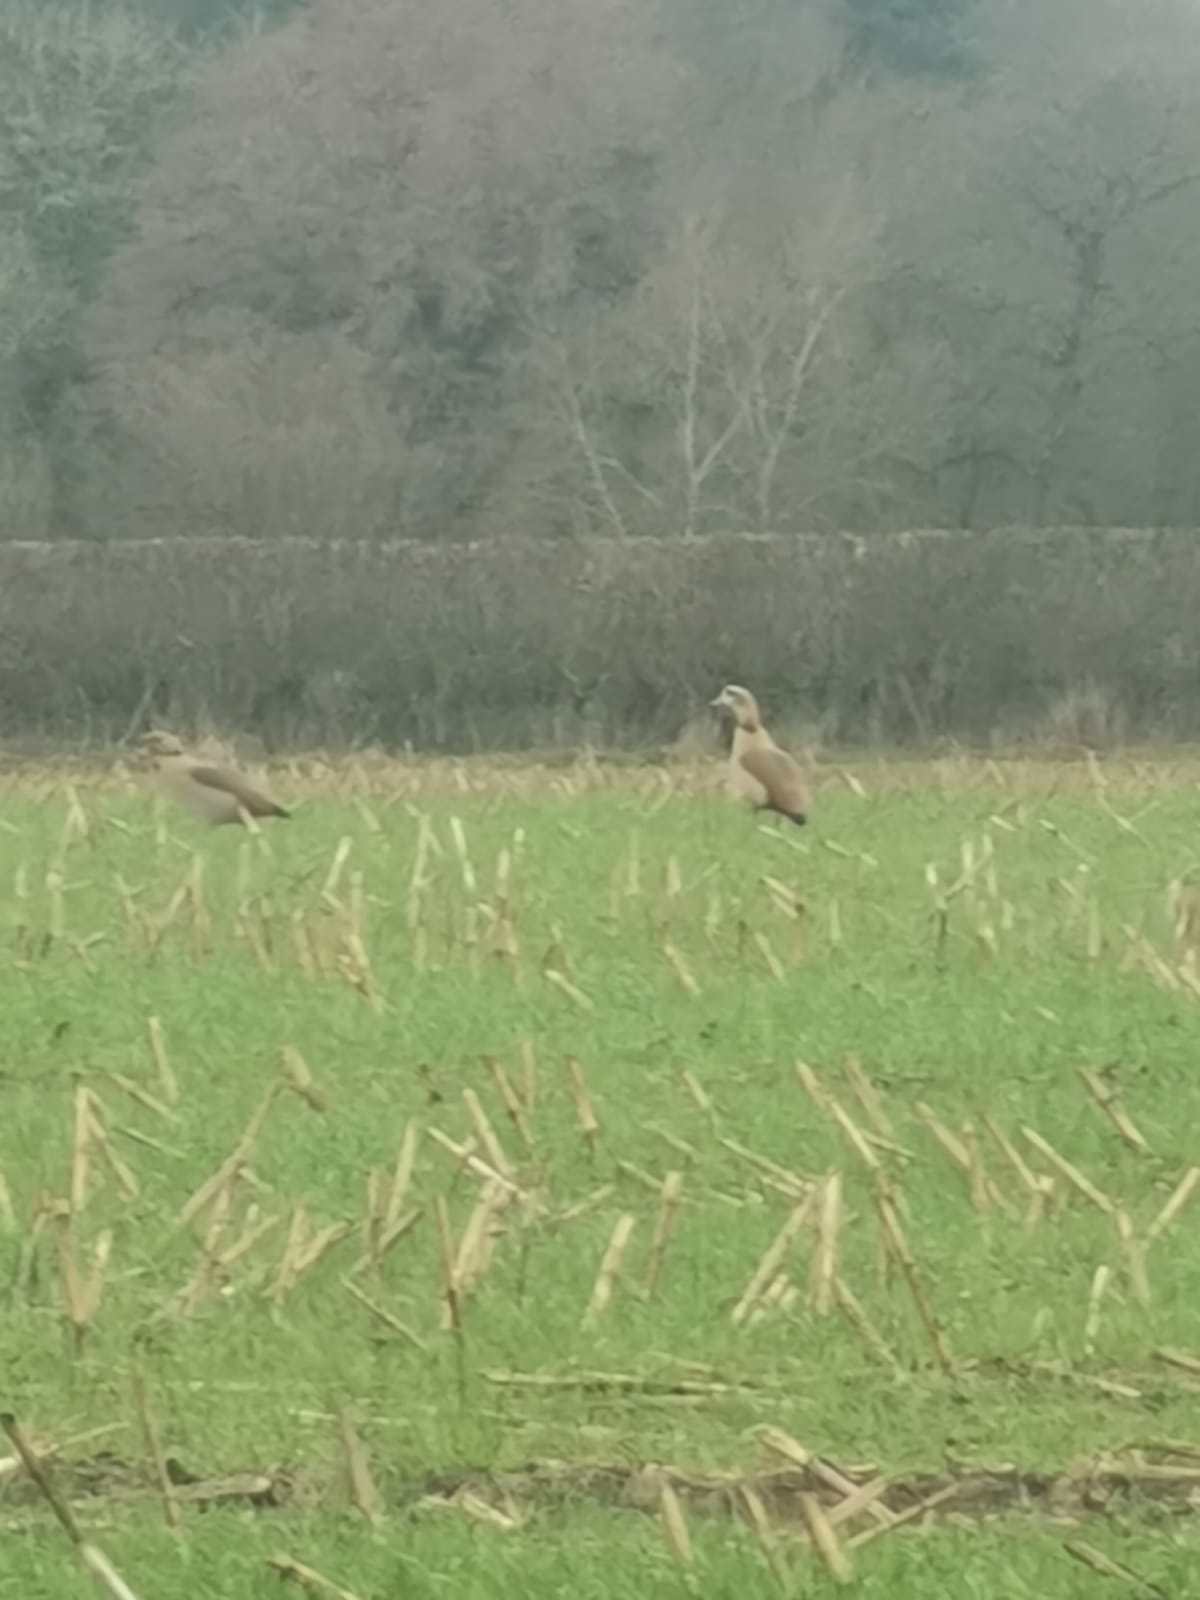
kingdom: Animalia
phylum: Chordata
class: Aves
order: Anseriformes
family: Anatidae
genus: Alopochen
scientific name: Alopochen aegyptiaca
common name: Egyptian goose
